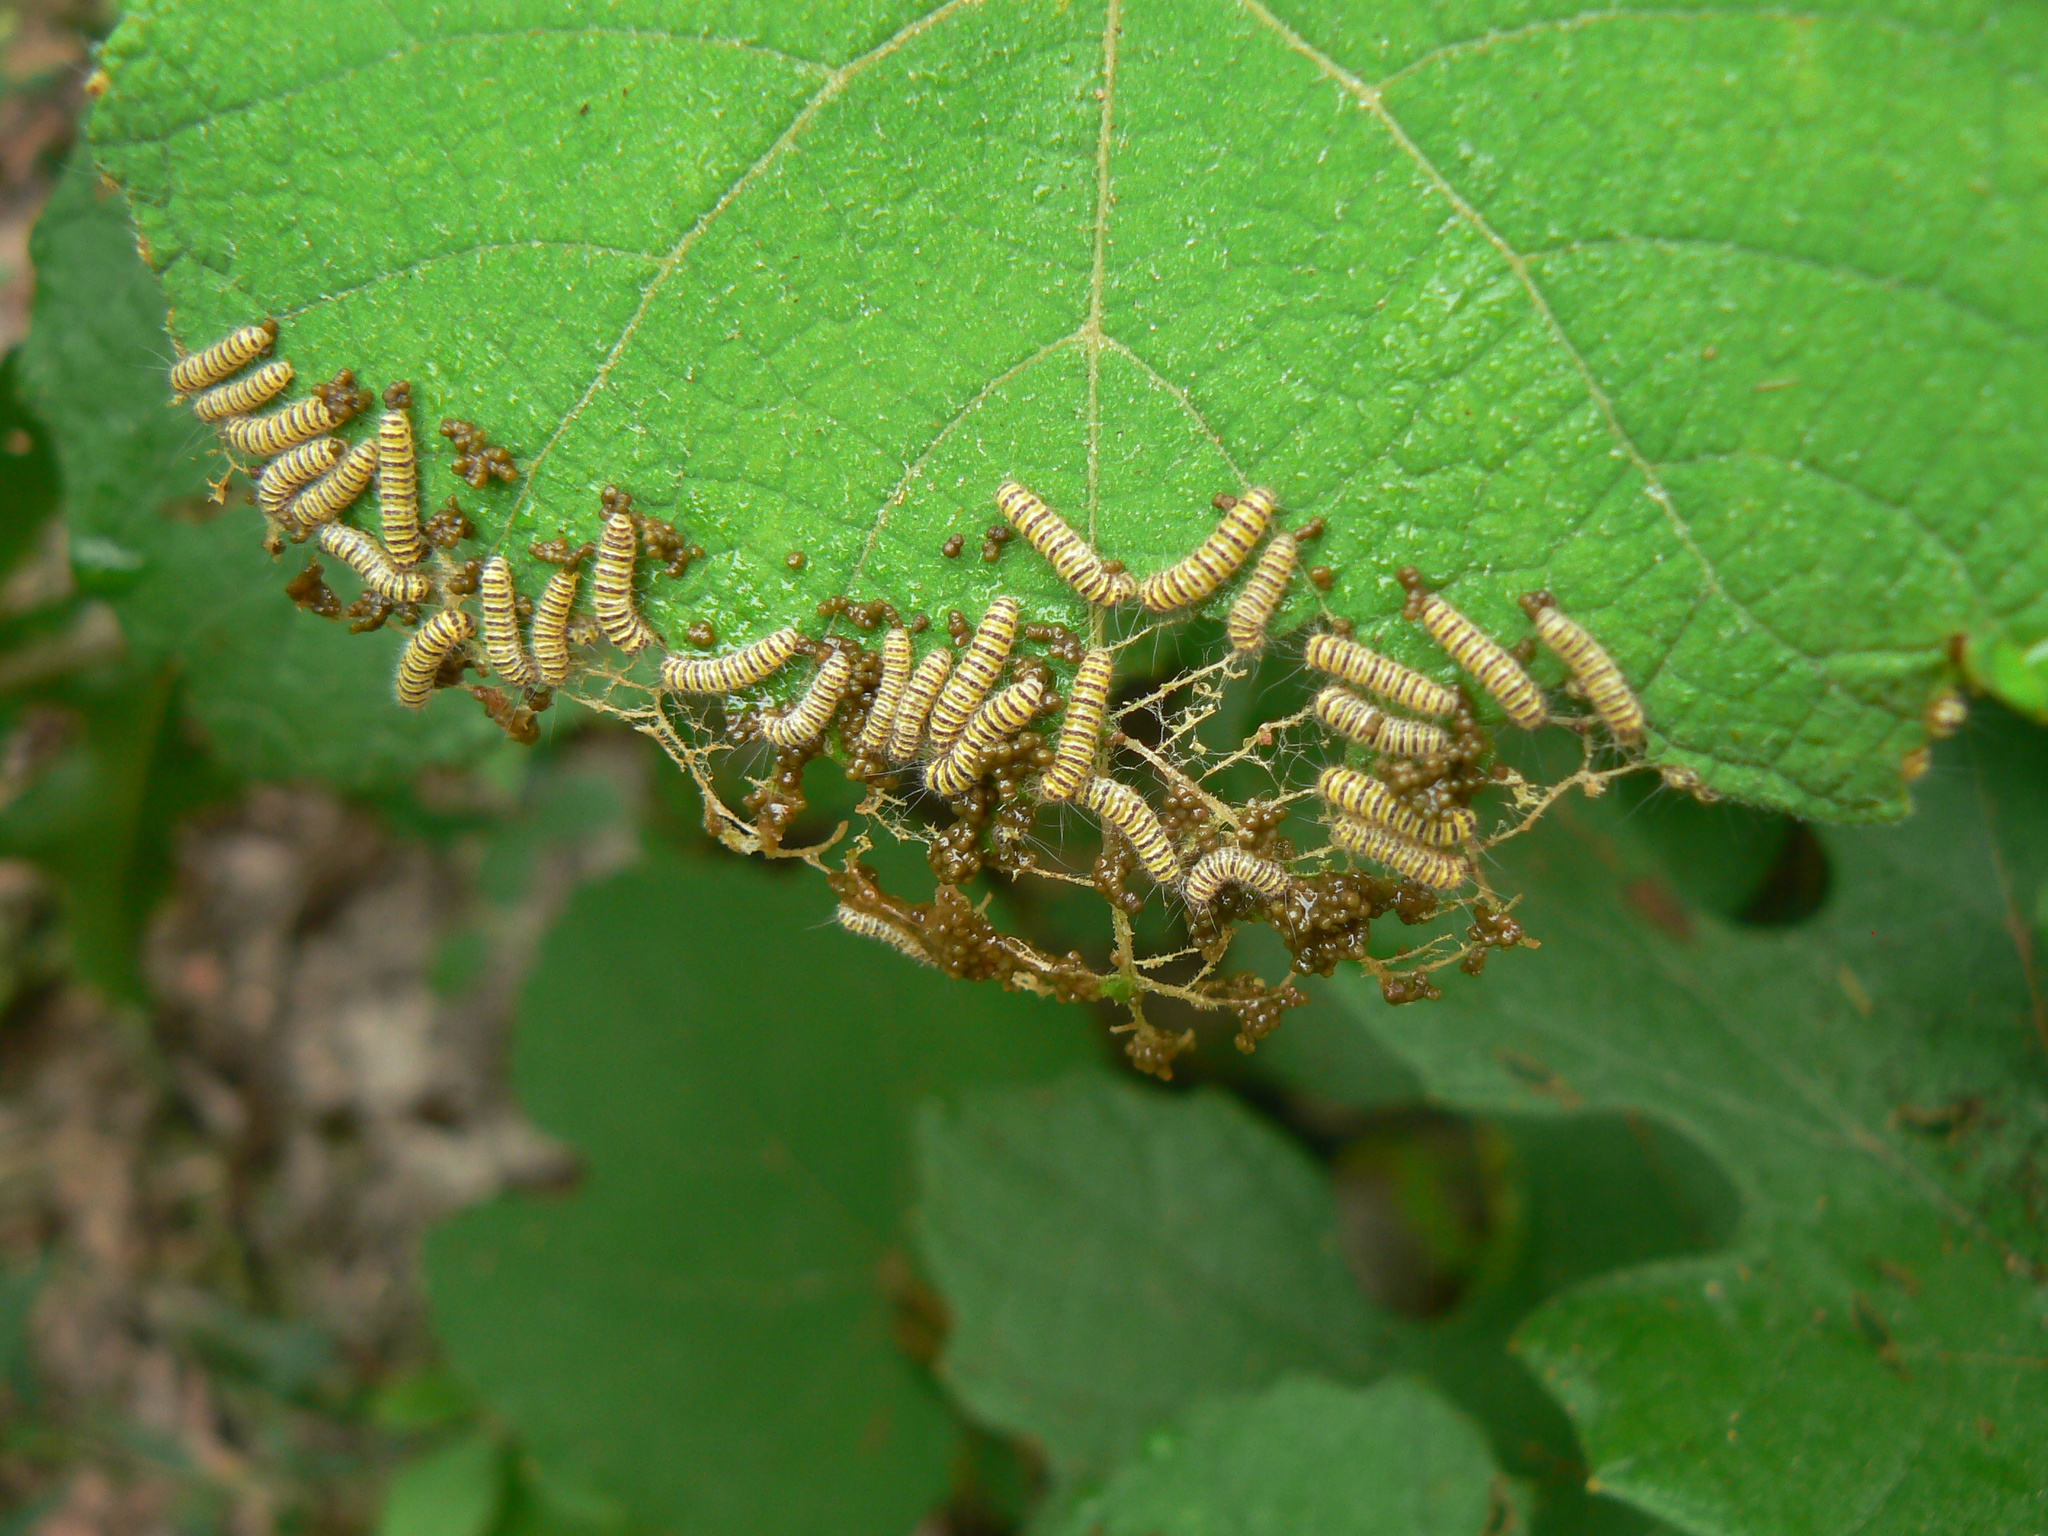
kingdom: Animalia
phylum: Arthropoda
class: Insecta
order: Lepidoptera
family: Zygaenidae
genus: Harrisina
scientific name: Harrisina americana
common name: Grapeleaf skeletonizer moth
